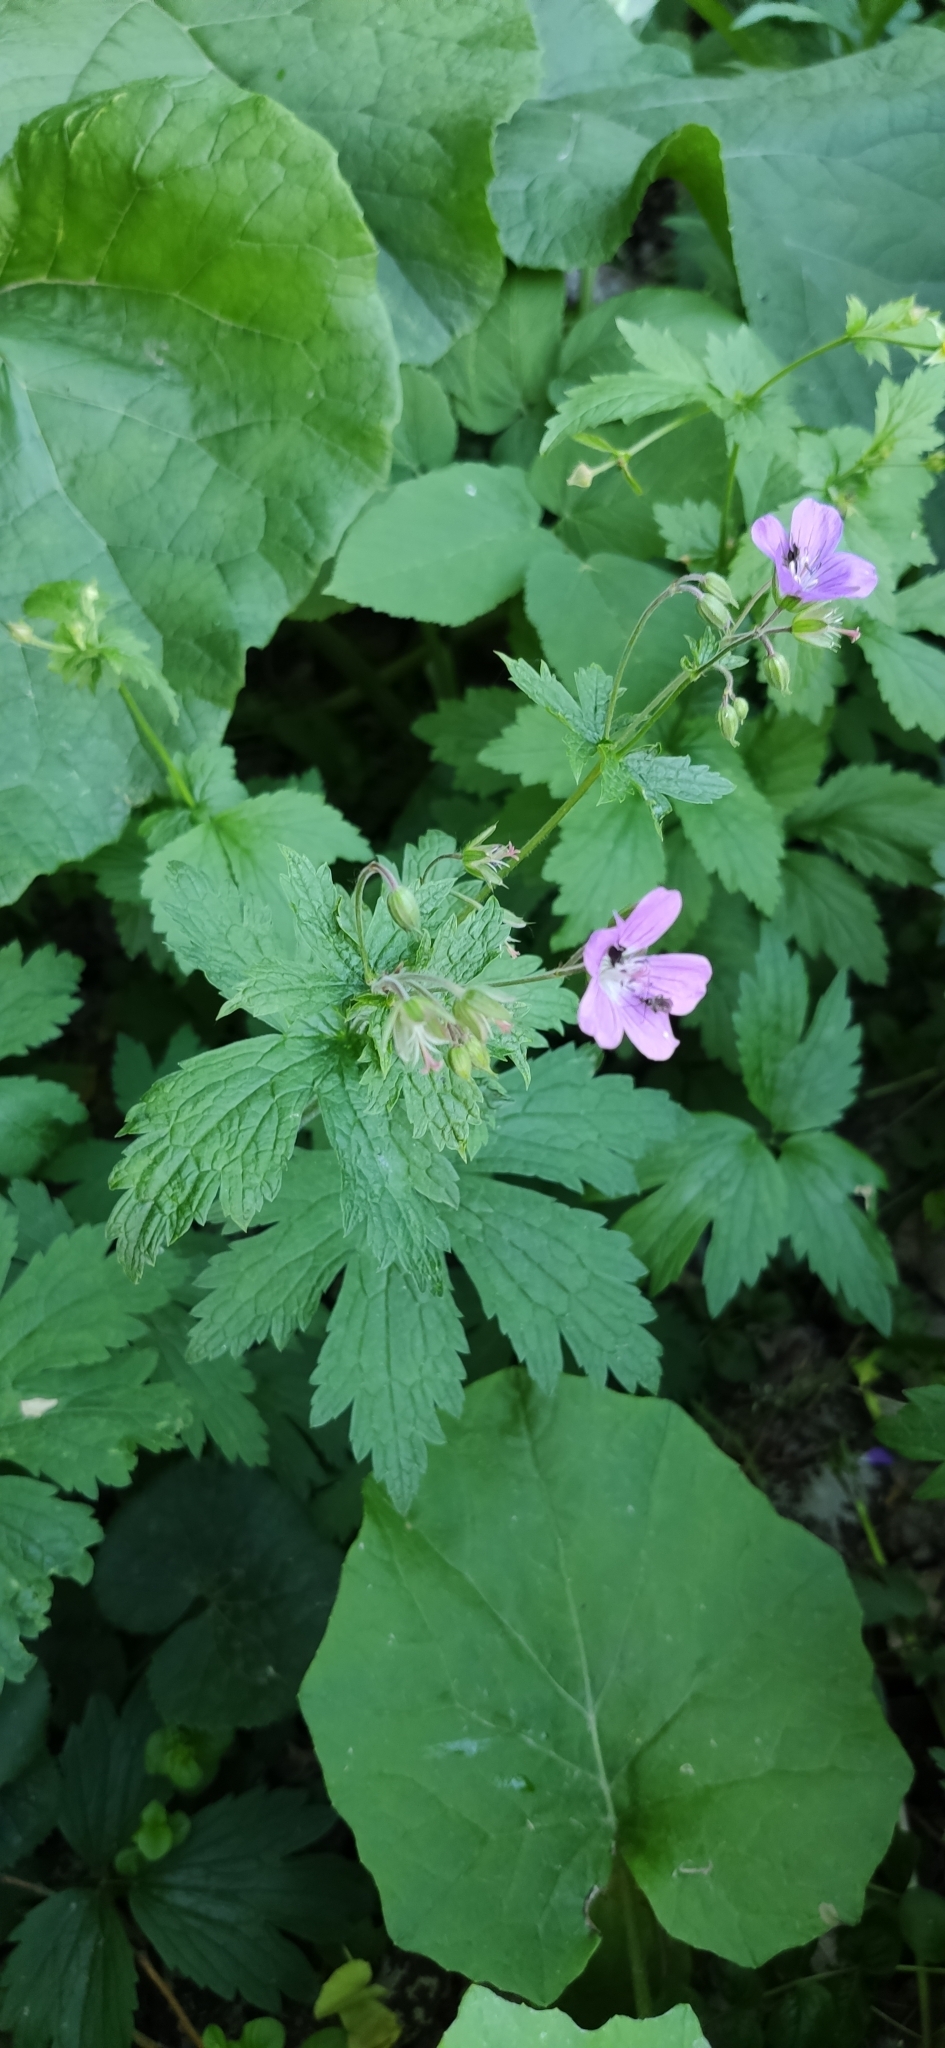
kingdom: Plantae
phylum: Tracheophyta
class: Magnoliopsida
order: Geraniales
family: Geraniaceae
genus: Geranium
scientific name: Geranium sylvaticum
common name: Wood crane's-bill
